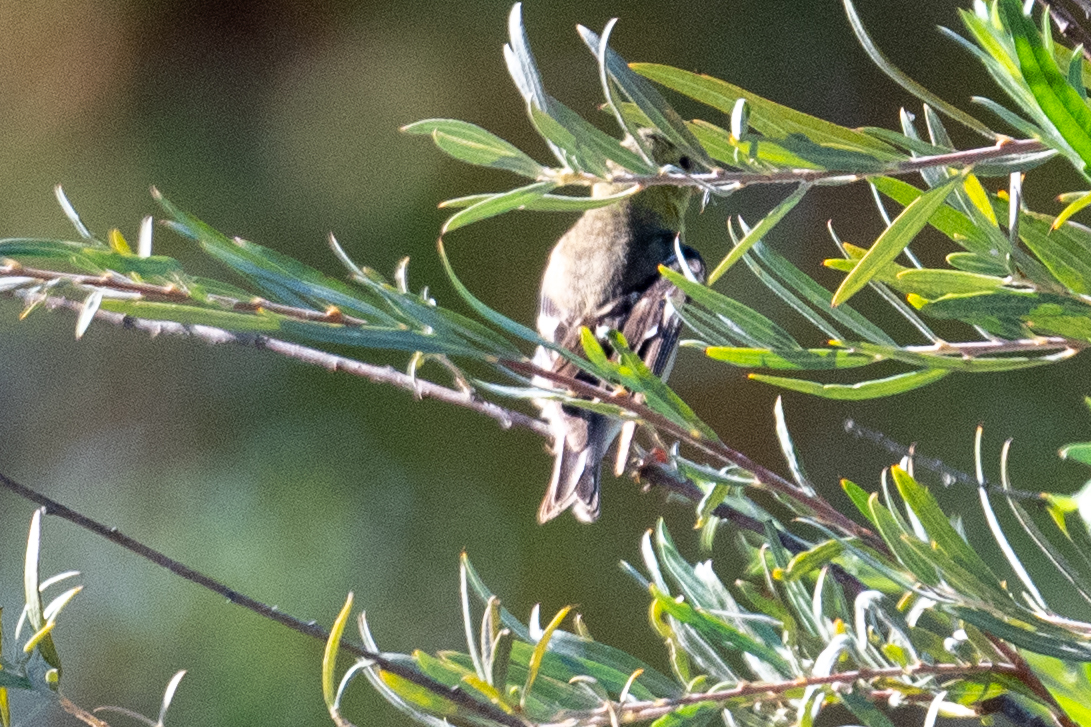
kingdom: Animalia
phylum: Chordata
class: Aves
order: Passeriformes
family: Fringillidae
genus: Spinus
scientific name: Spinus psaltria
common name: Lesser goldfinch
